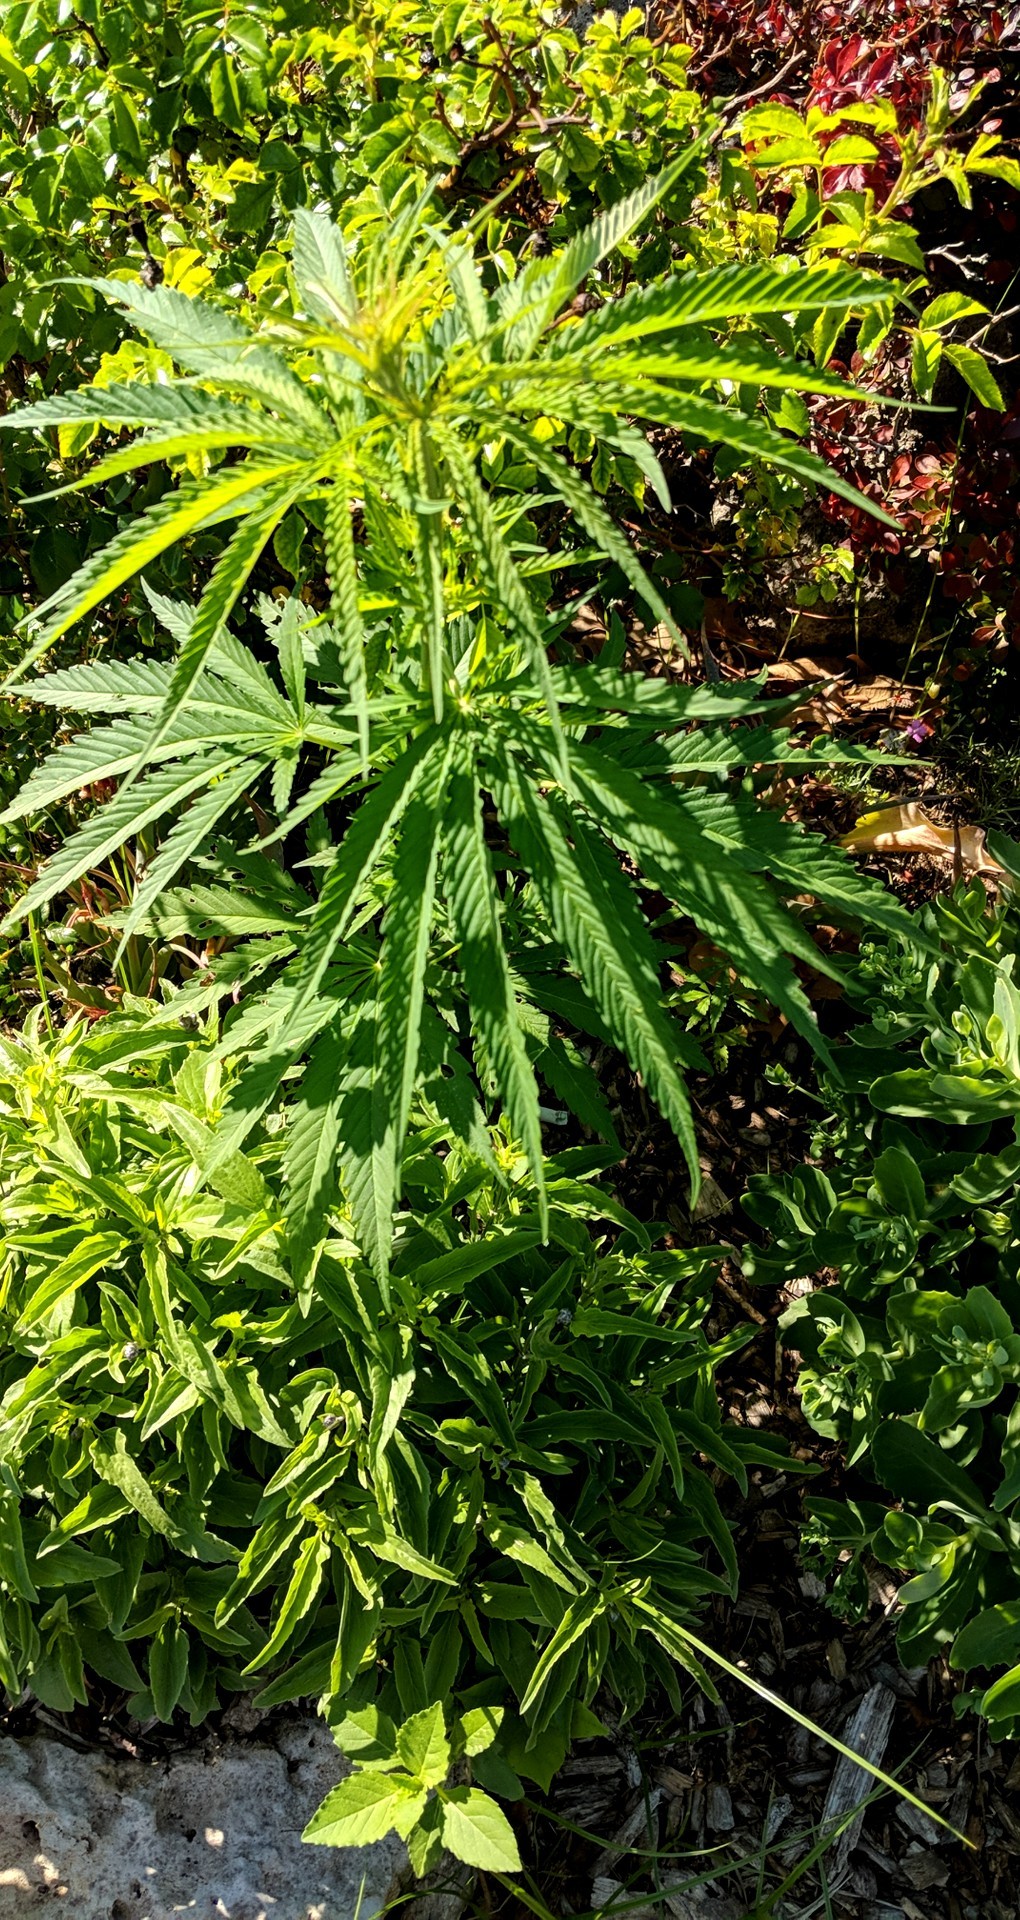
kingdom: Plantae
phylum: Tracheophyta
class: Magnoliopsida
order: Rosales
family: Cannabaceae
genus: Cannabis
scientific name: Cannabis sativa
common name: Hemp
